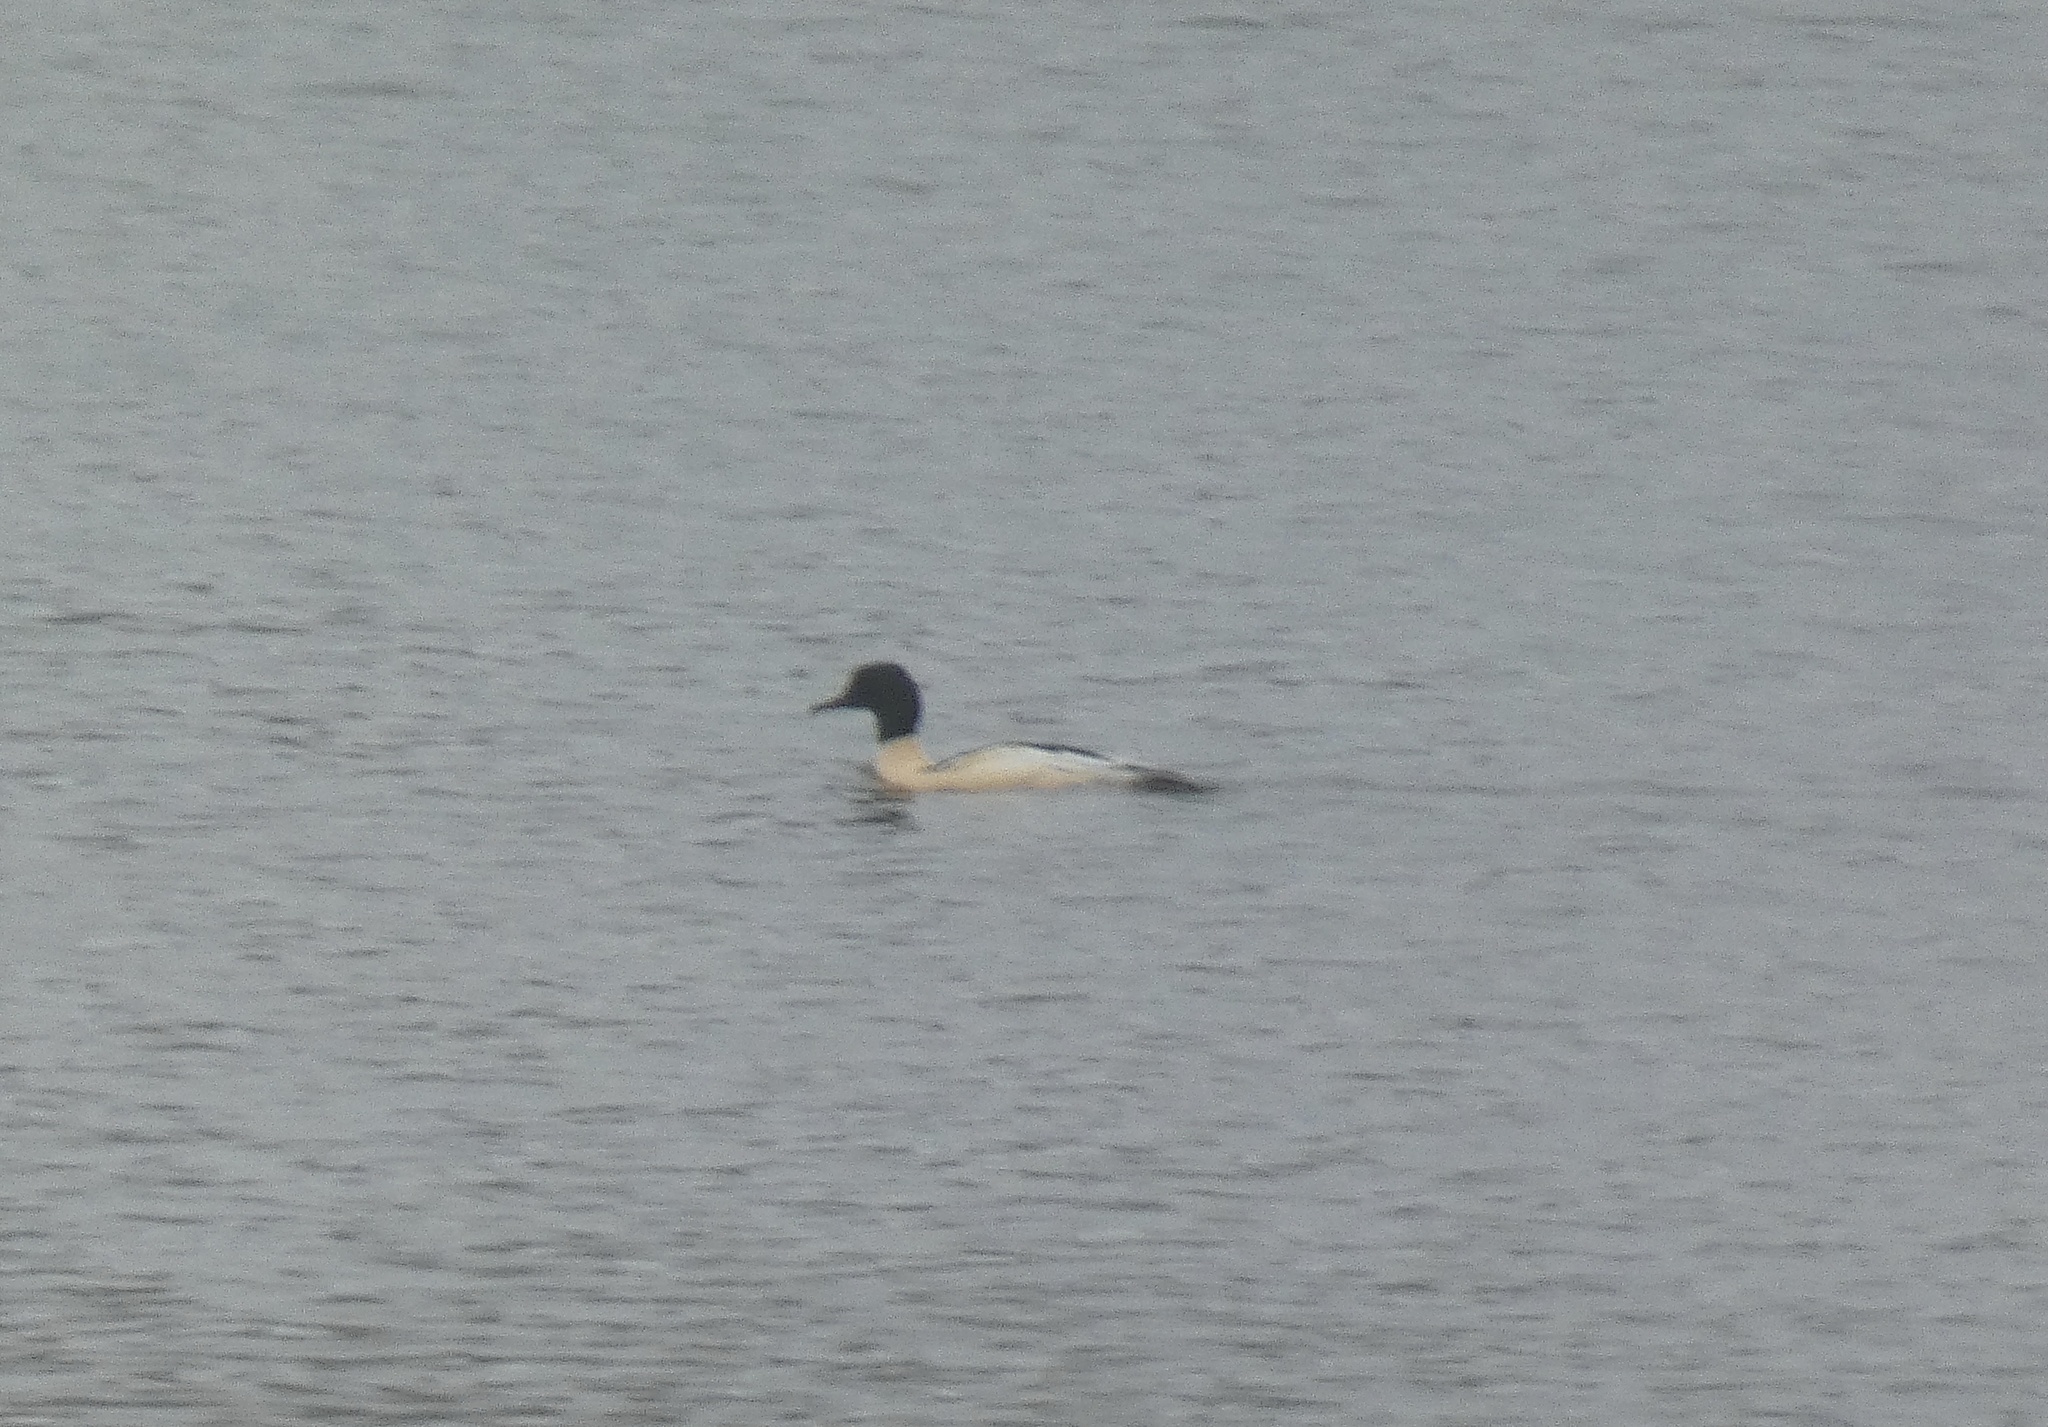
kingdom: Animalia
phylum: Chordata
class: Aves
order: Anseriformes
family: Anatidae
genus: Mergus
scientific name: Mergus merganser
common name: Common merganser
